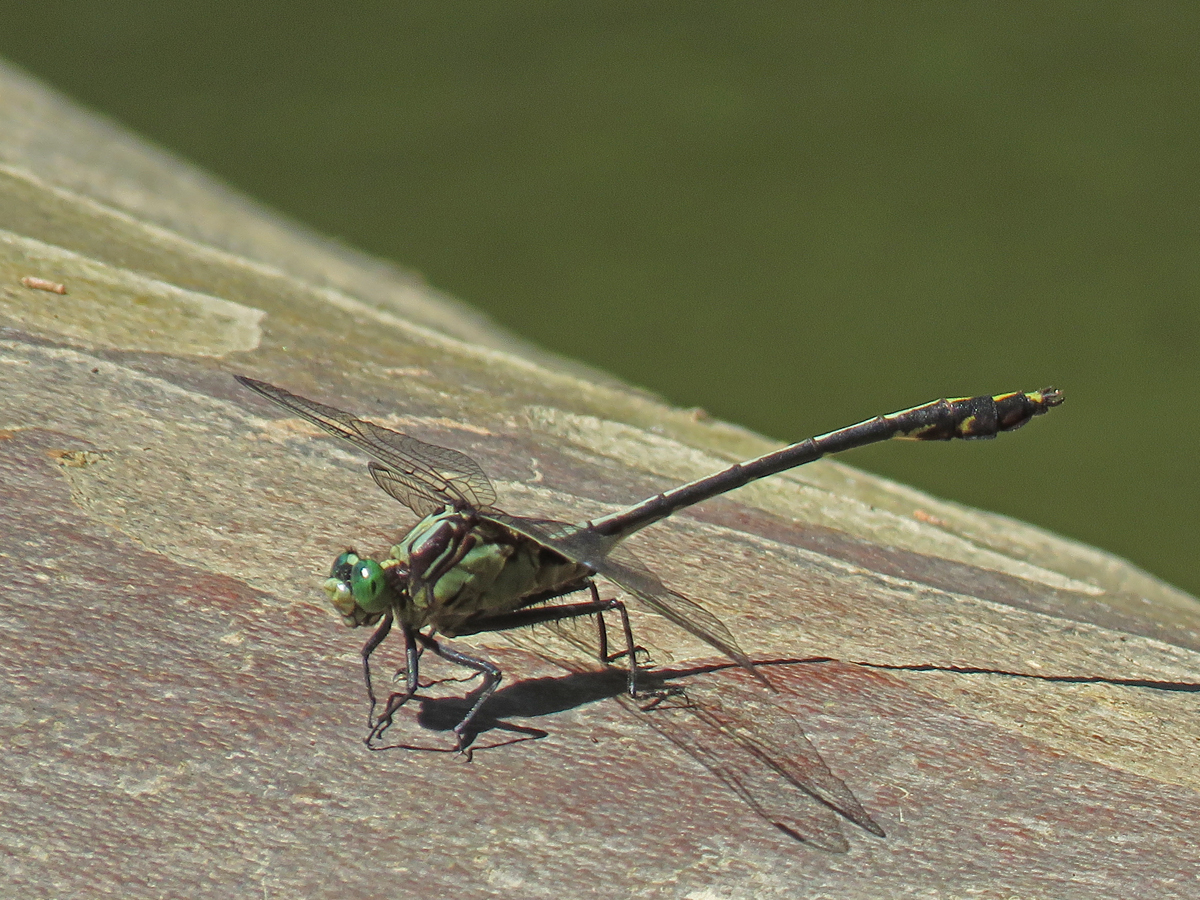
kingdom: Animalia
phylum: Arthropoda
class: Insecta
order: Odonata
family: Gomphidae
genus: Dromogomphus
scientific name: Dromogomphus spinosus
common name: Black-shouldered spinyleg
